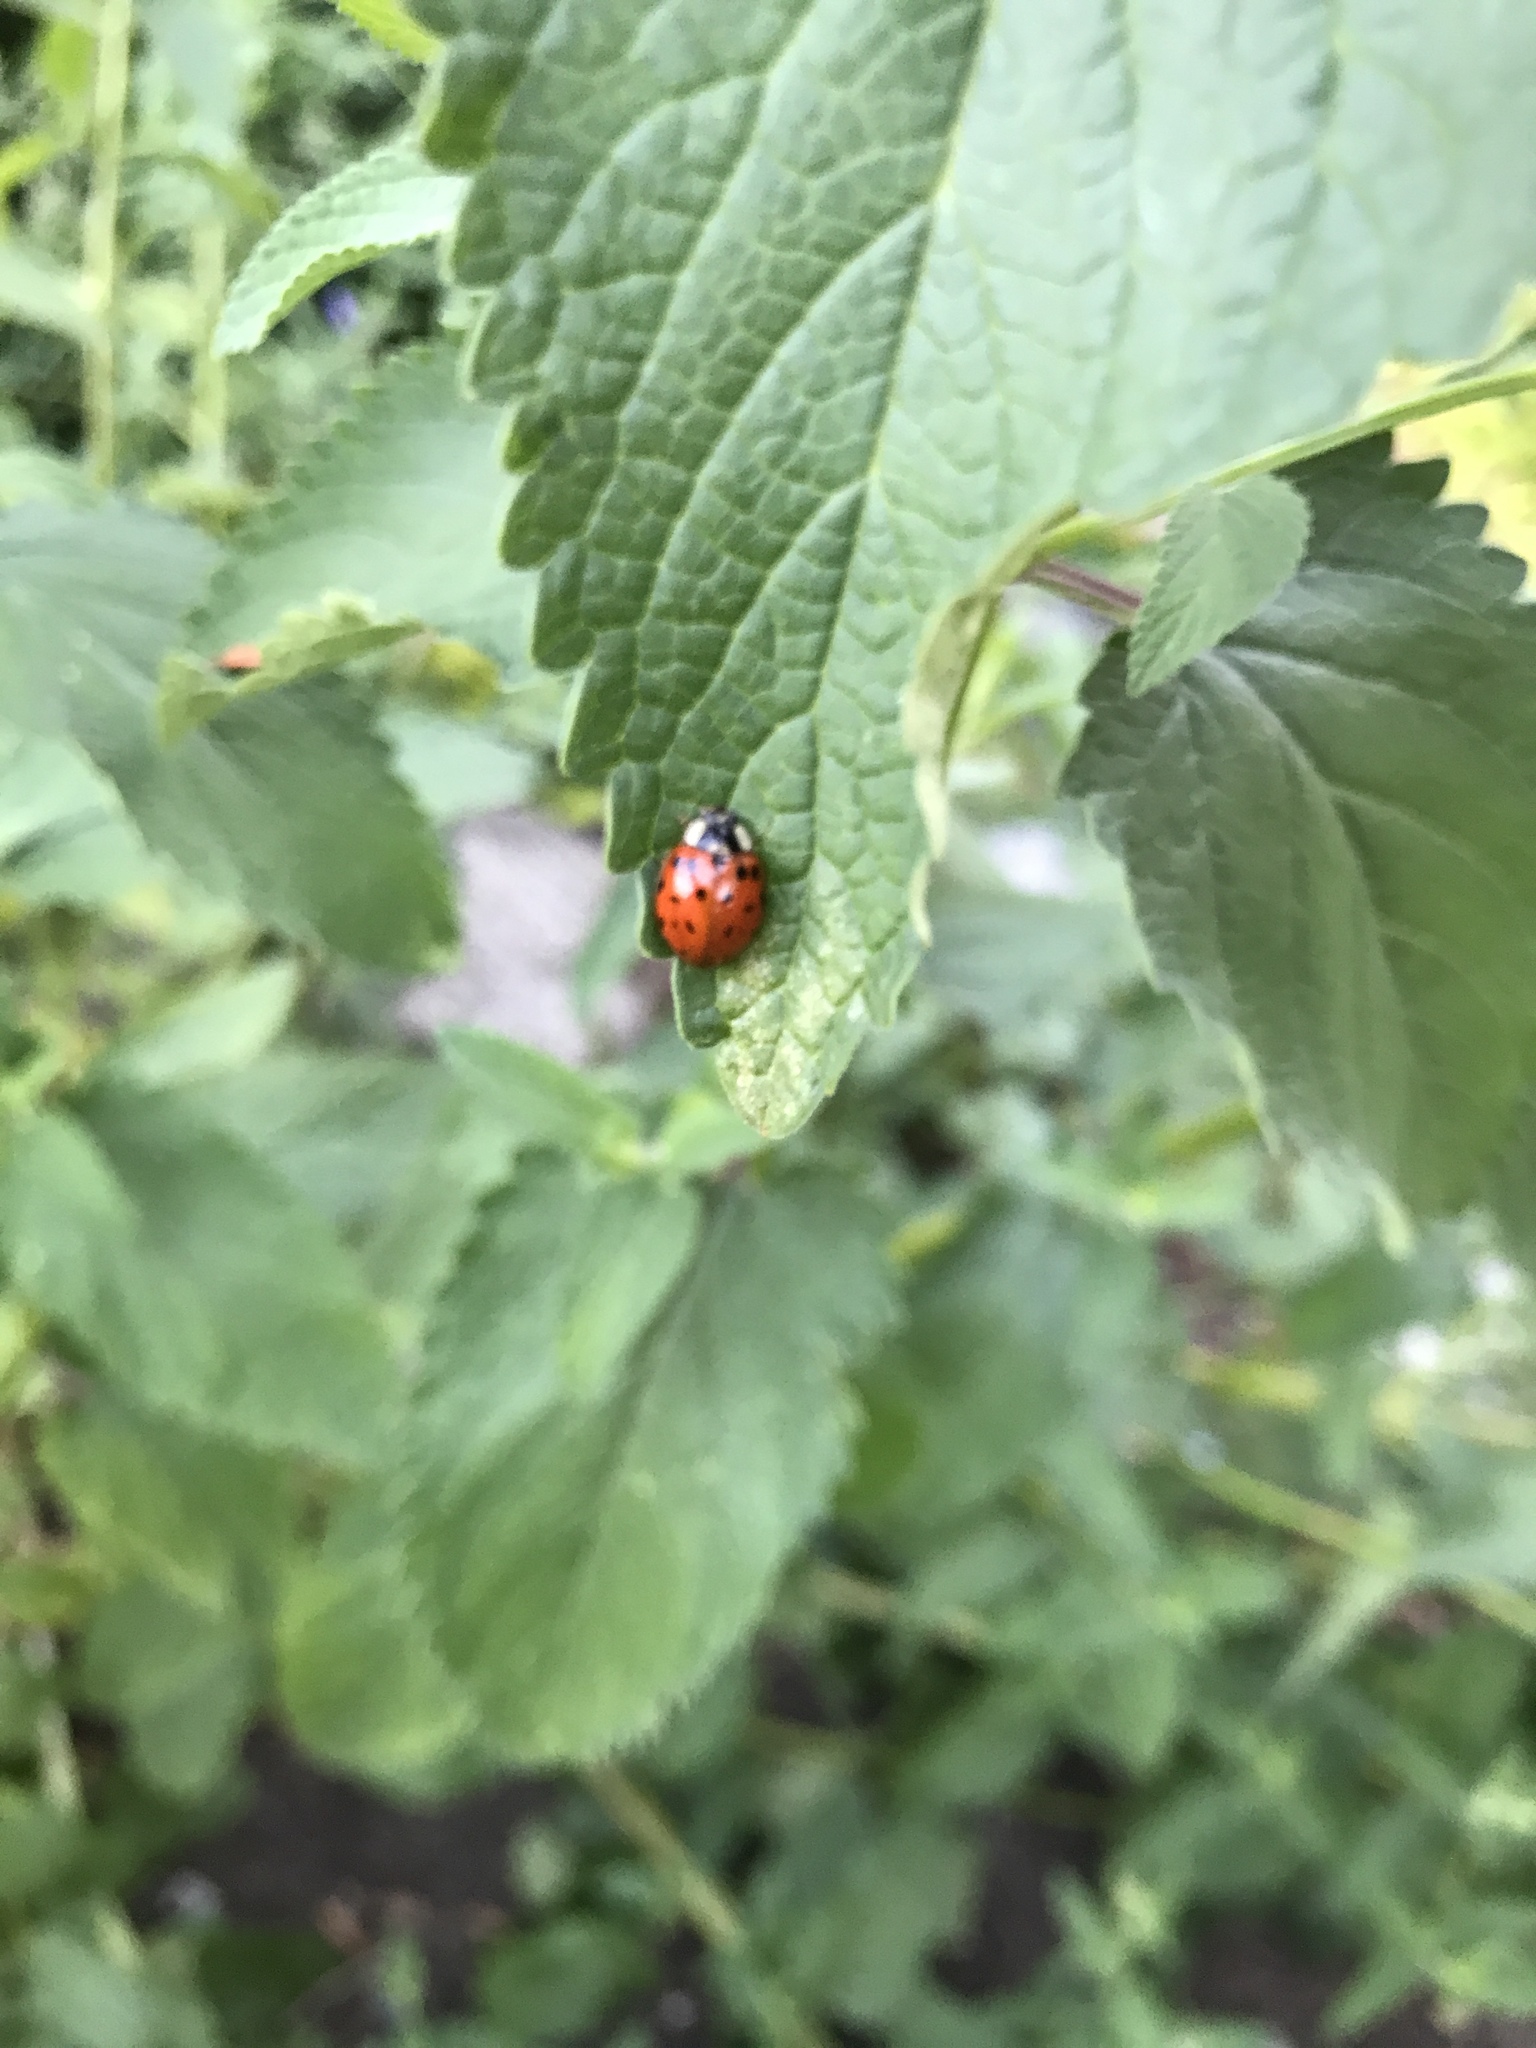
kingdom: Animalia
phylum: Arthropoda
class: Insecta
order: Coleoptera
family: Coccinellidae
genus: Harmonia
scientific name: Harmonia axyridis
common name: Harlequin ladybird
